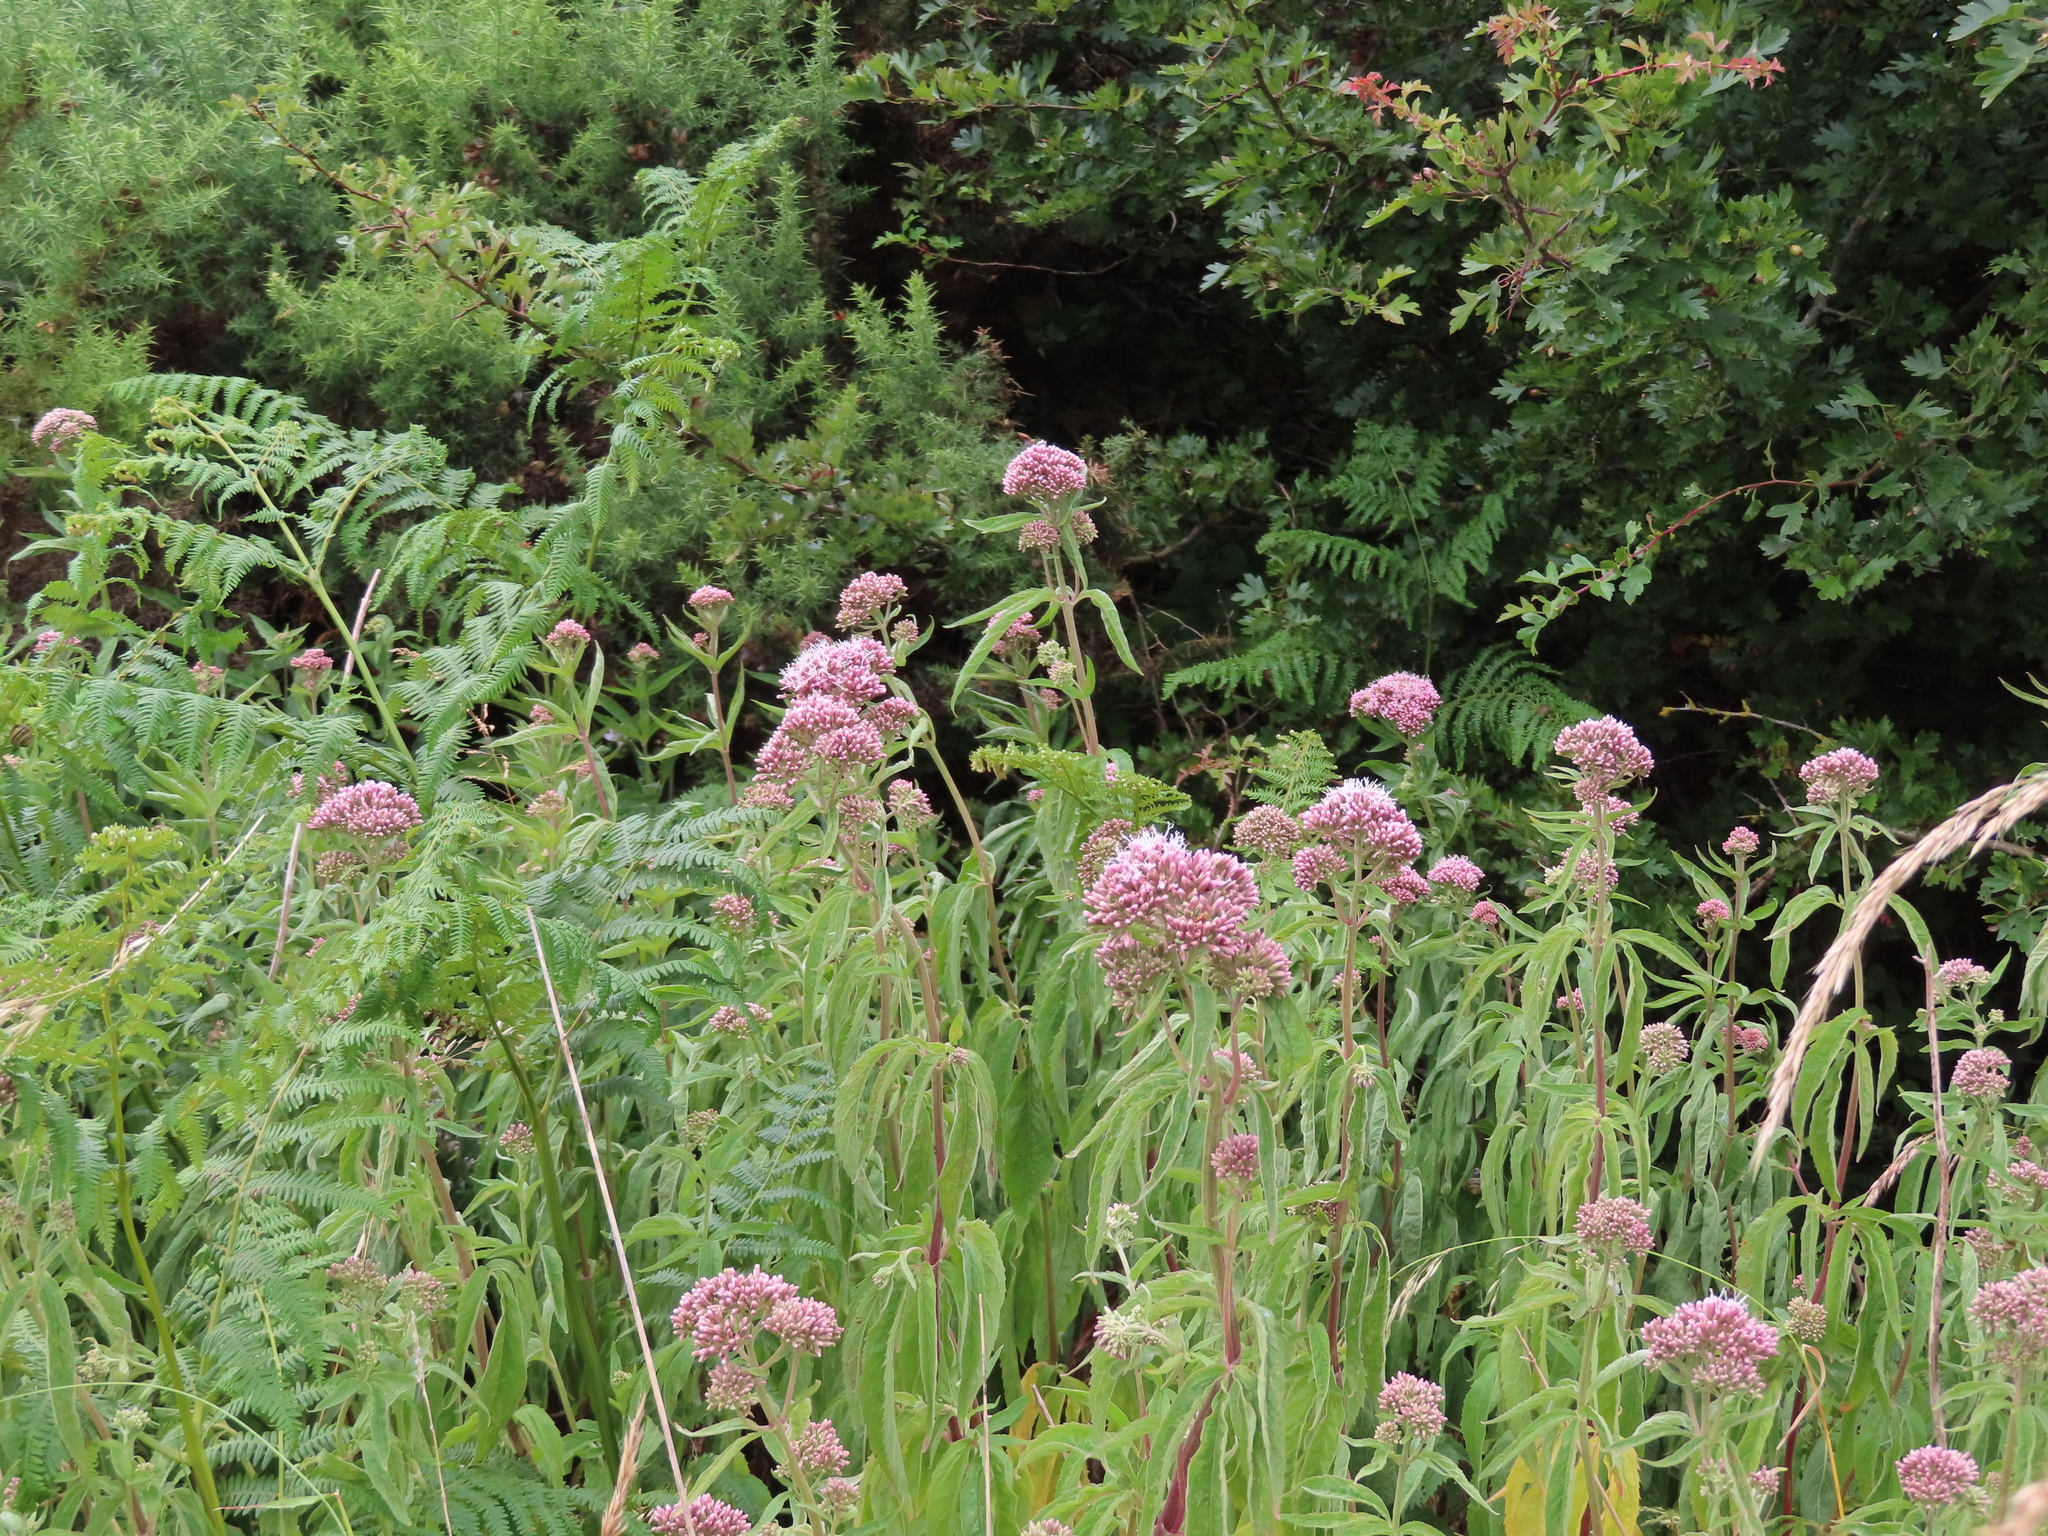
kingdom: Plantae
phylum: Tracheophyta
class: Magnoliopsida
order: Asterales
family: Asteraceae
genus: Eupatorium
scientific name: Eupatorium cannabinum
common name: Hemp-agrimony
